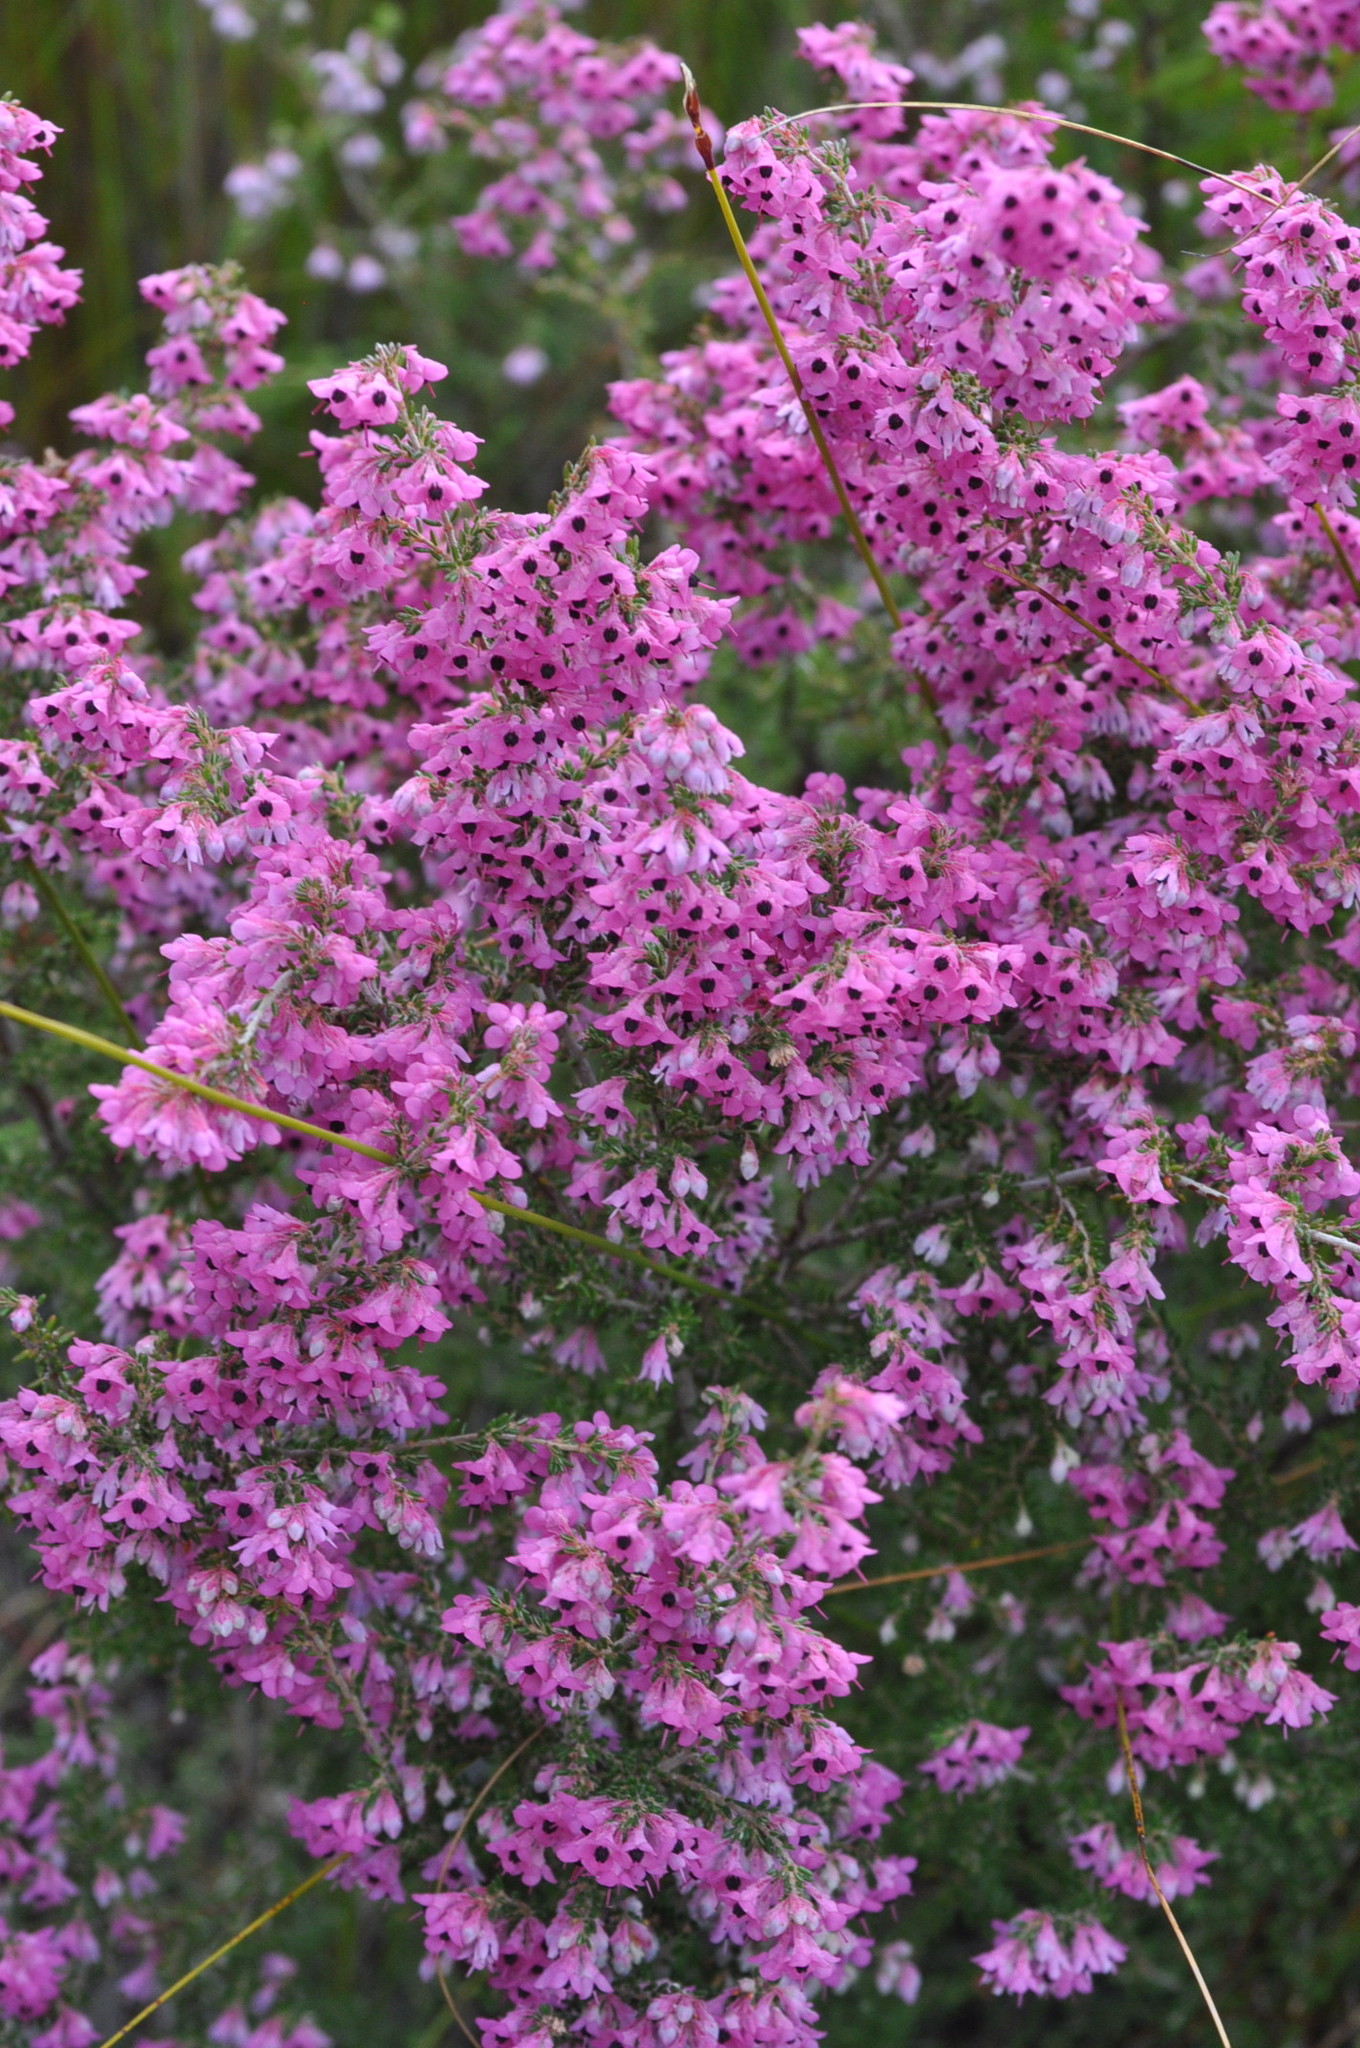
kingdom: Plantae
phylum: Tracheophyta
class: Magnoliopsida
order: Ericales
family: Ericaceae
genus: Erica
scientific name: Erica melanthera
